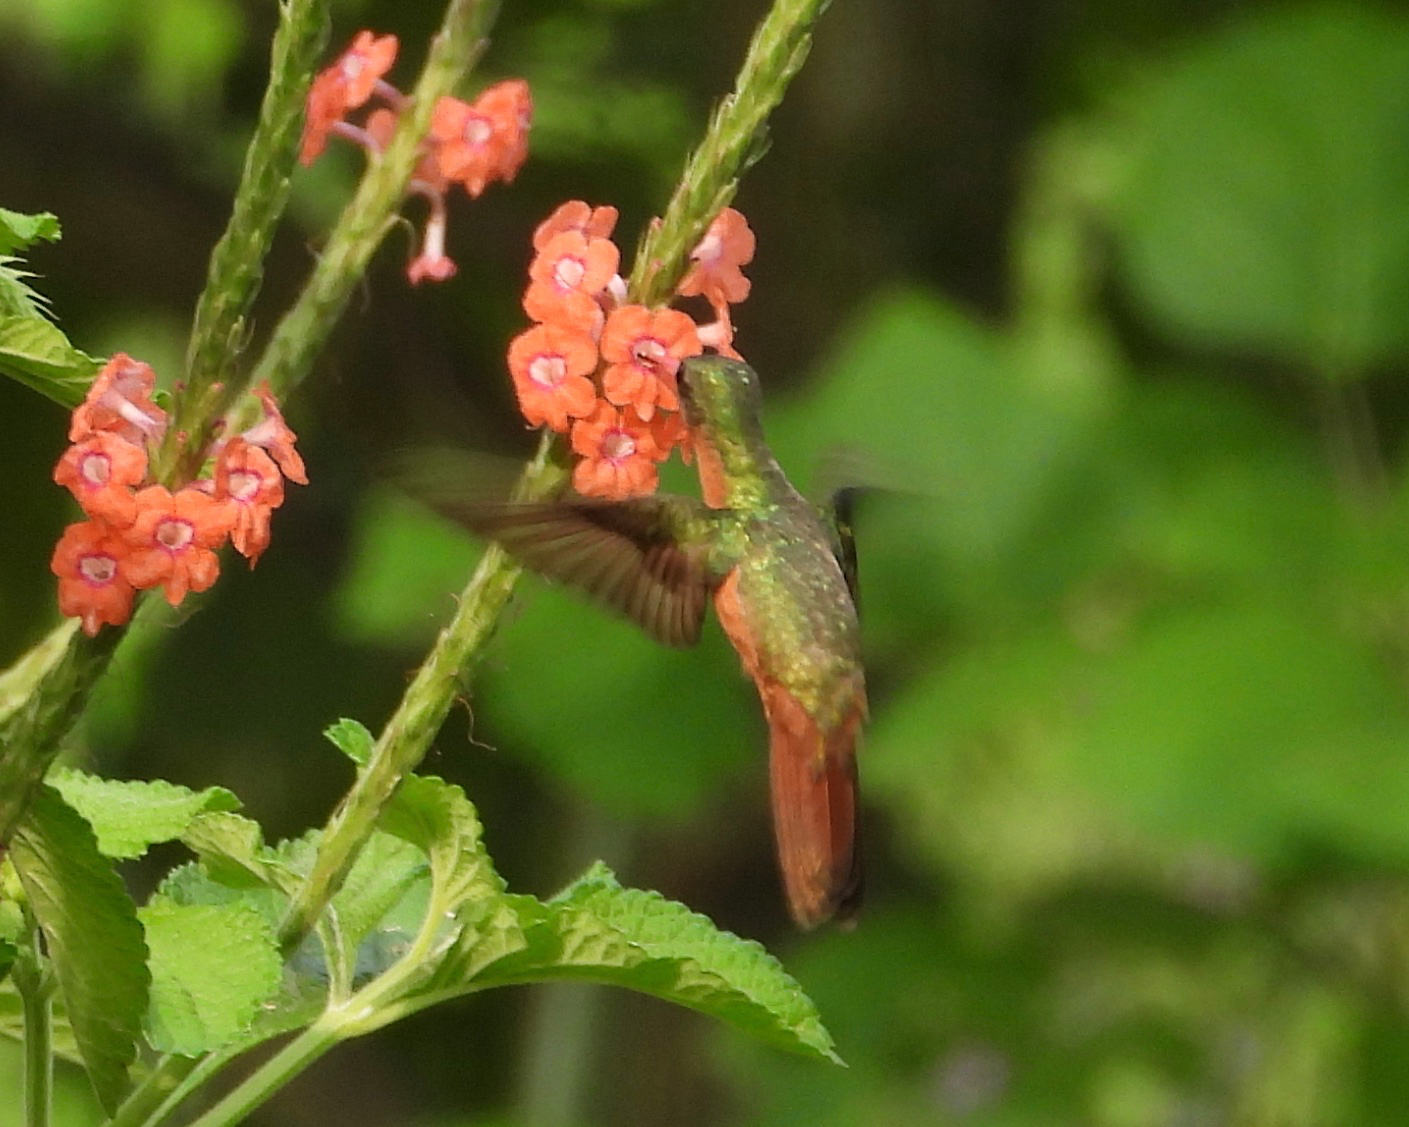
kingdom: Animalia
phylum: Chordata
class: Aves
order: Apodiformes
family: Trochilidae
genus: Amazilia
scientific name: Amazilia rutila
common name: Cinnamon hummingbird
